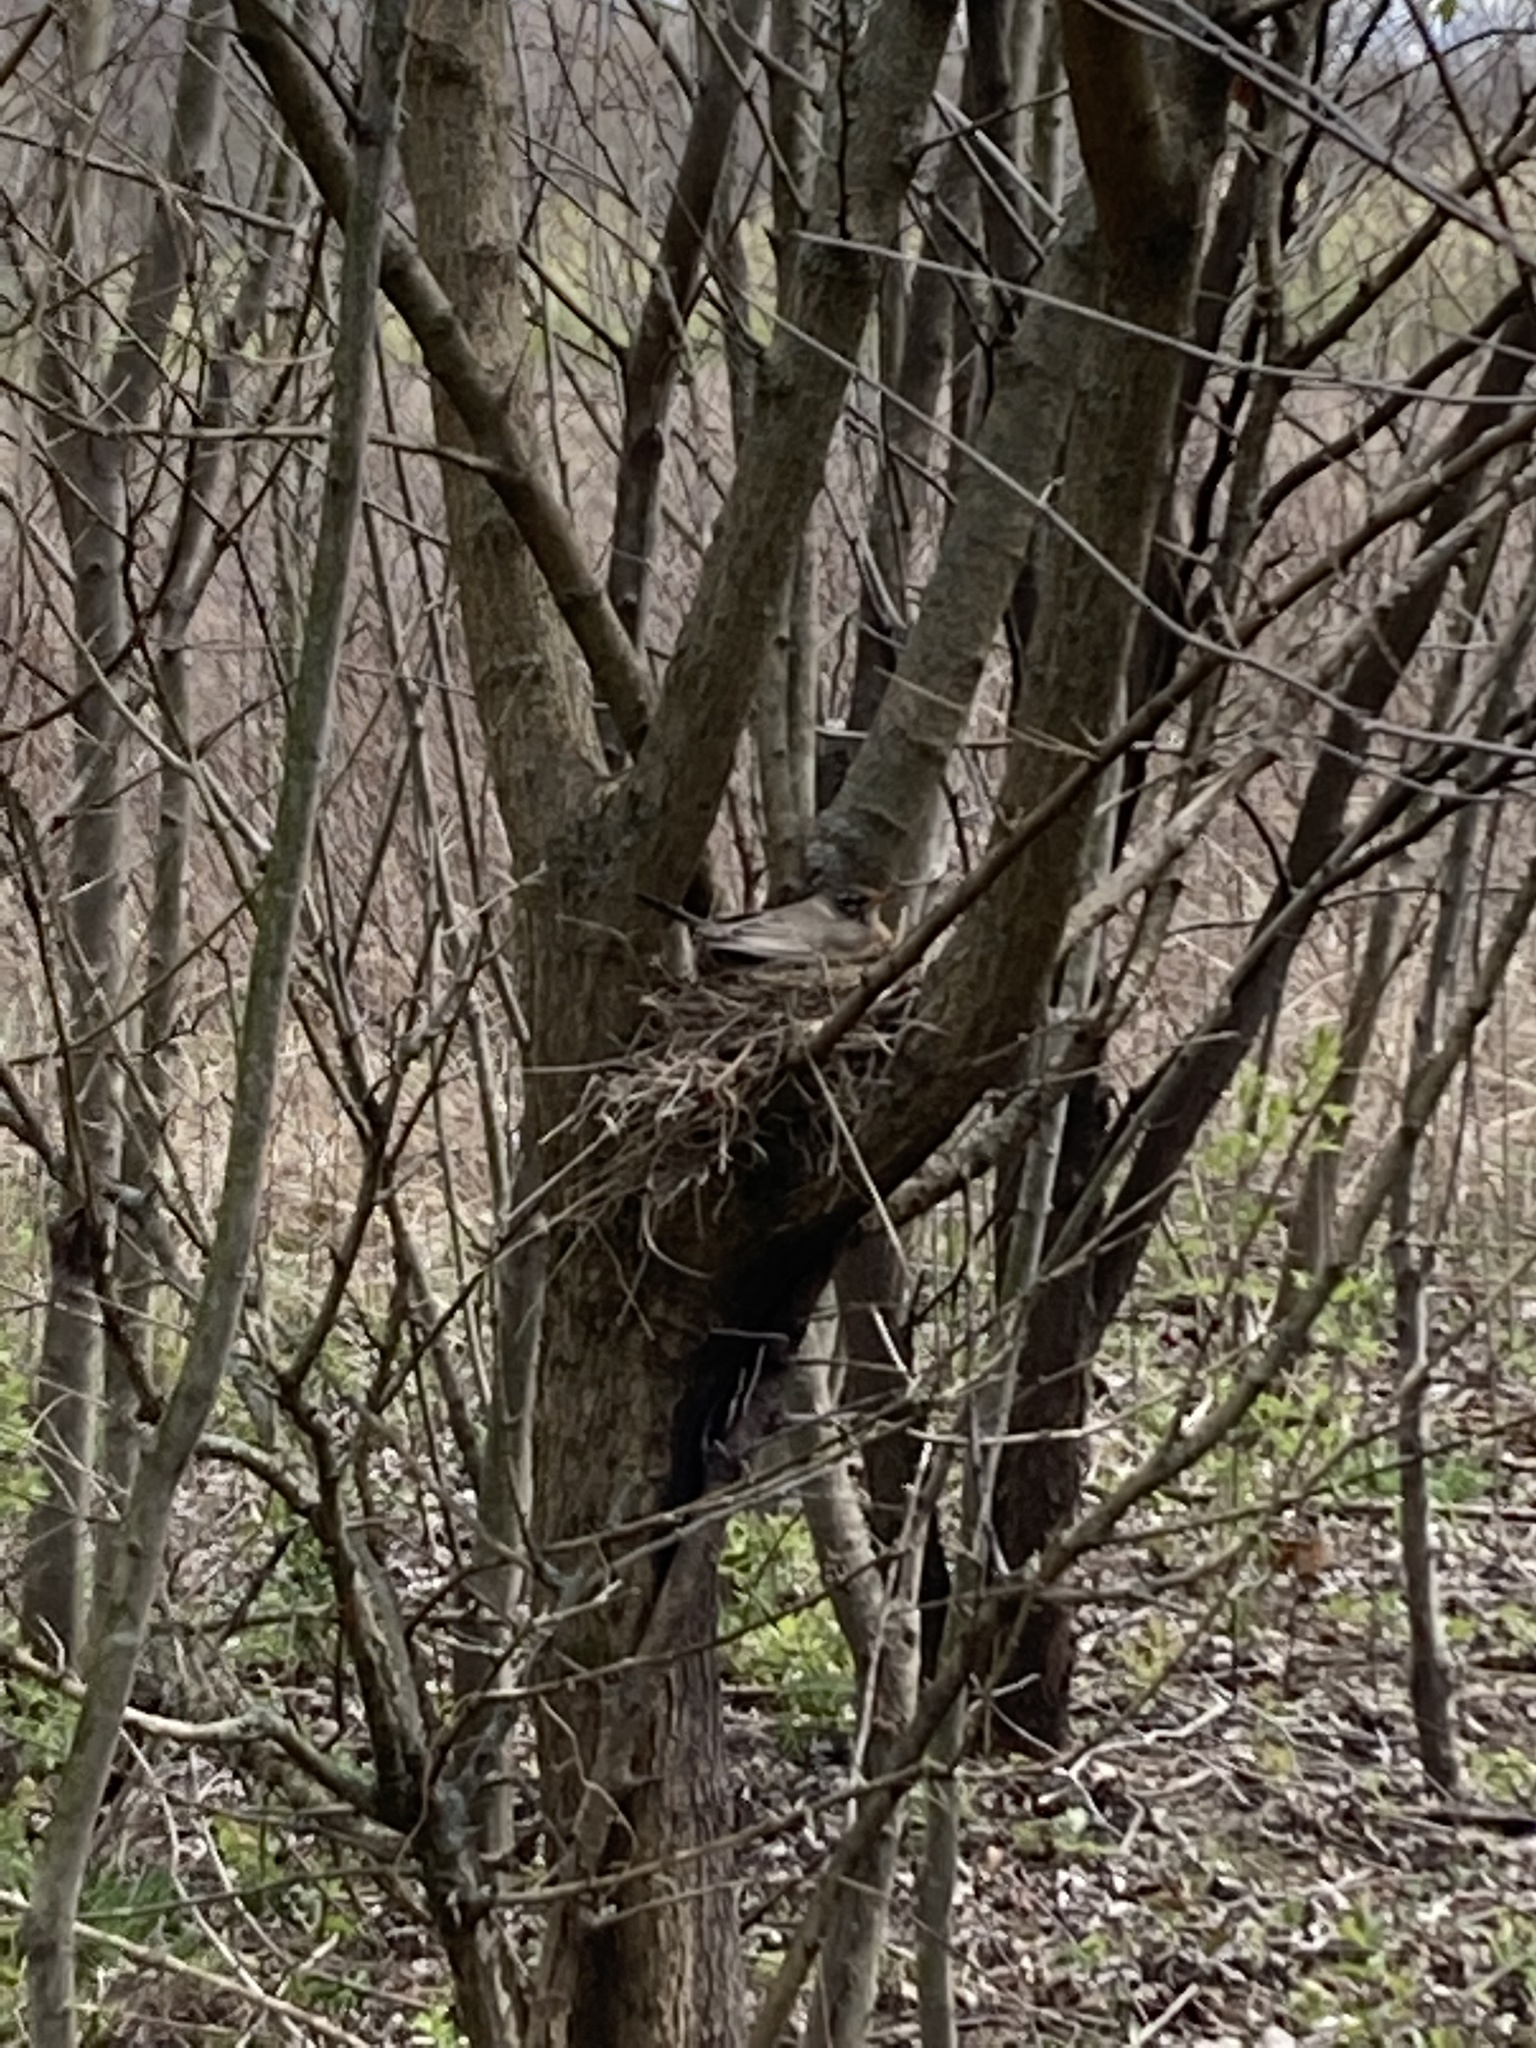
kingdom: Animalia
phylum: Chordata
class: Aves
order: Passeriformes
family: Turdidae
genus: Turdus
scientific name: Turdus migratorius
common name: American robin
